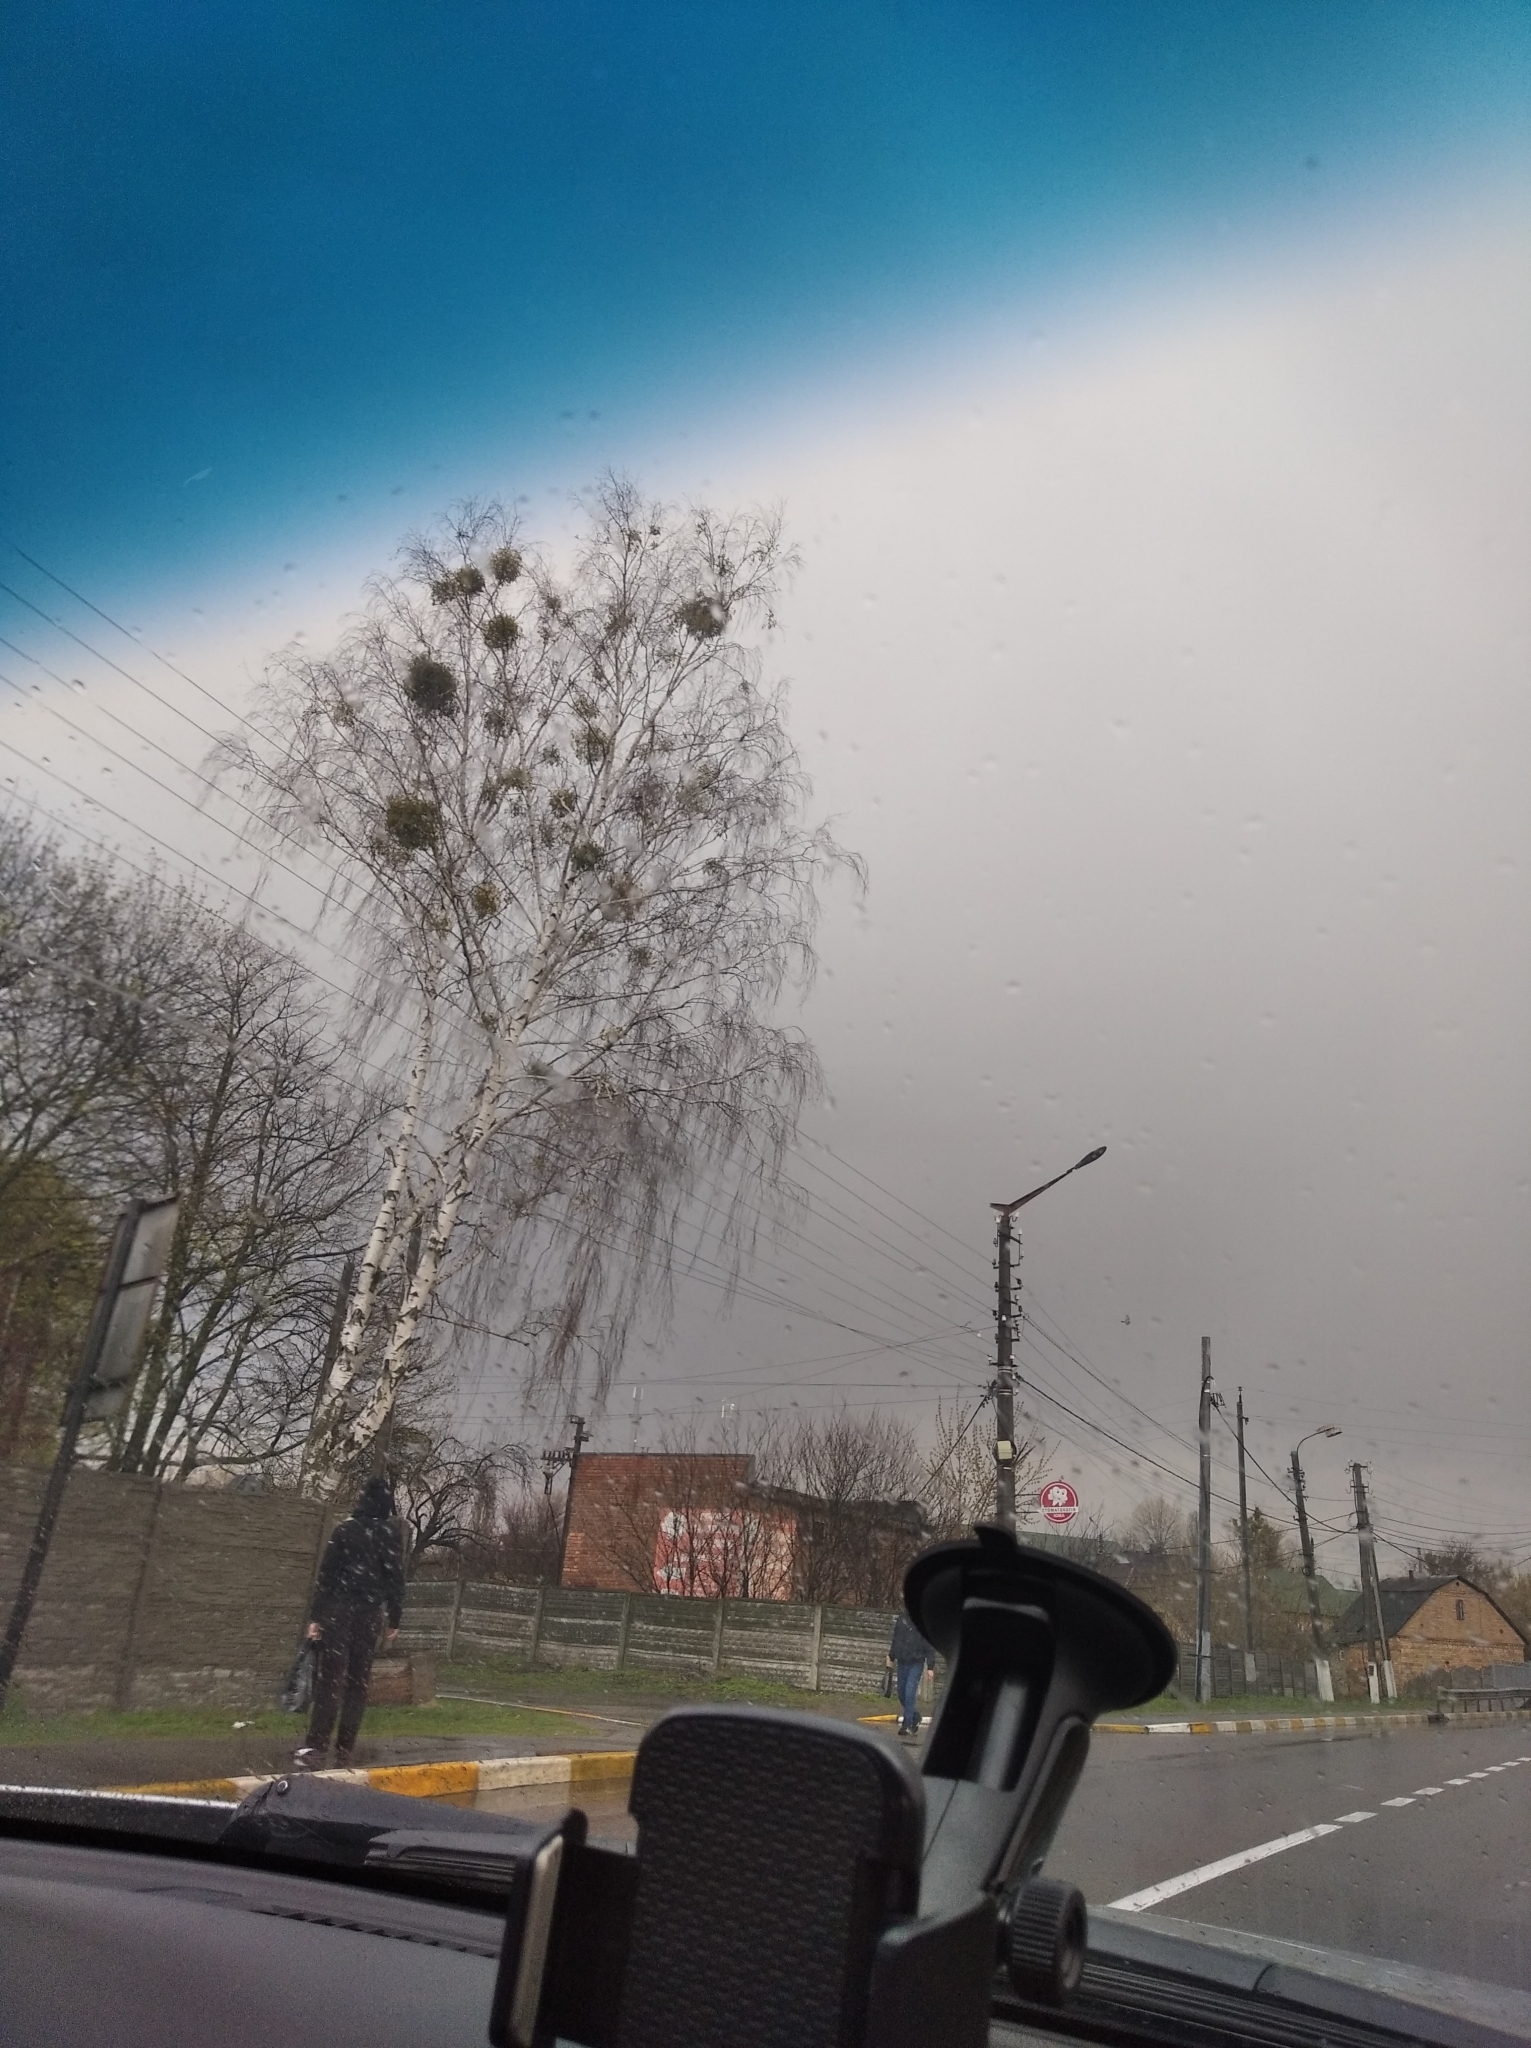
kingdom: Plantae
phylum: Tracheophyta
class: Magnoliopsida
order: Santalales
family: Viscaceae
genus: Viscum
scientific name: Viscum album
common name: Mistletoe
